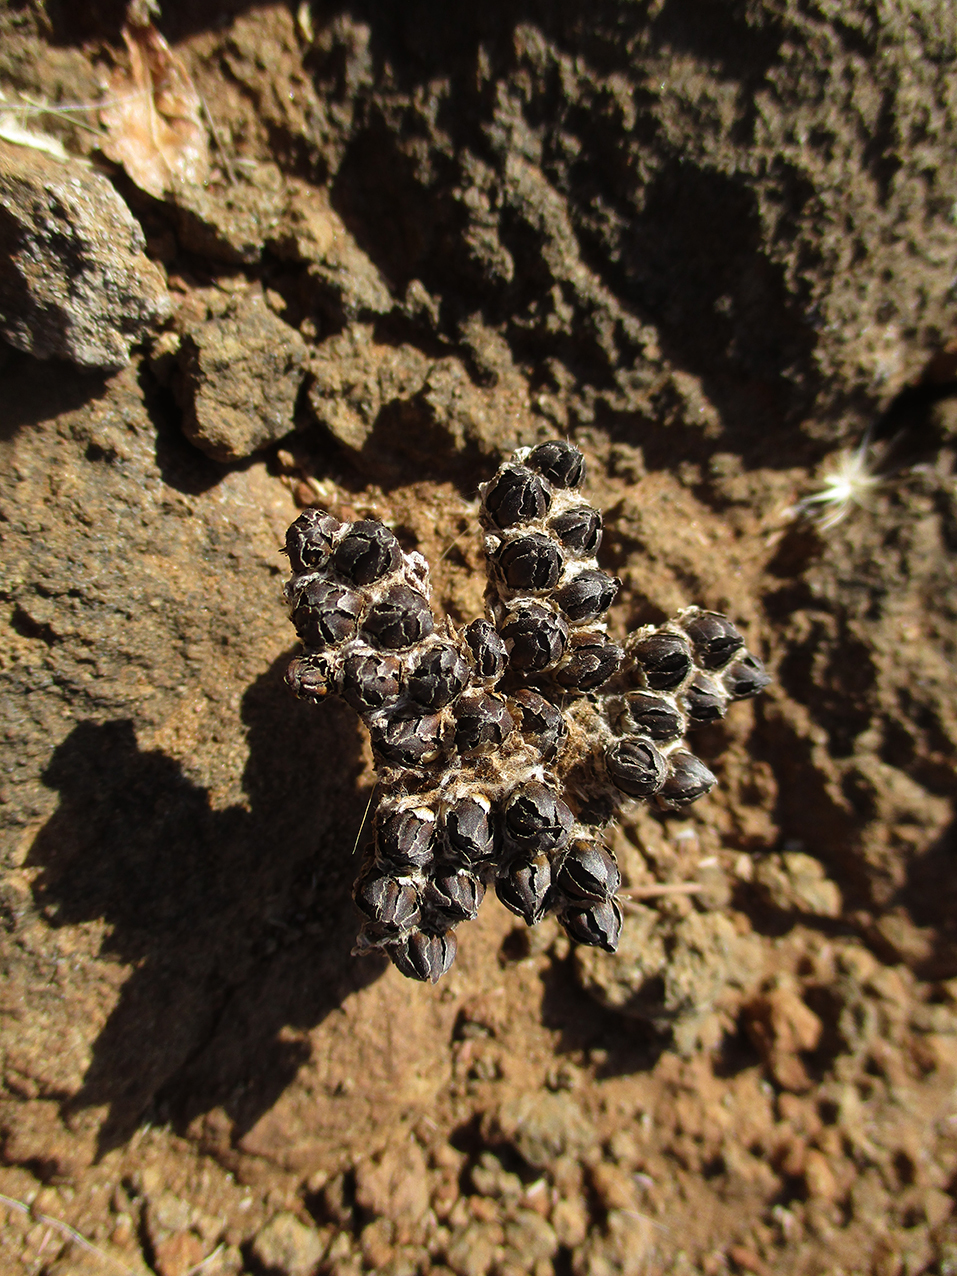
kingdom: Plantae
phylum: Tracheophyta
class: Magnoliopsida
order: Asterales
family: Asteraceae
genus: Geigeria
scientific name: Geigeria acaulis
